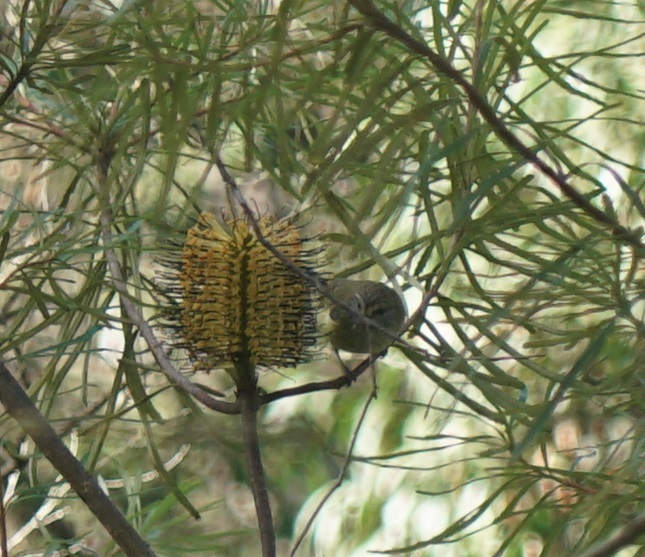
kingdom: Animalia
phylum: Chordata
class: Aves
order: Passeriformes
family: Acanthizidae
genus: Acanthiza
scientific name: Acanthiza lineata
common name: Striated thornbill
